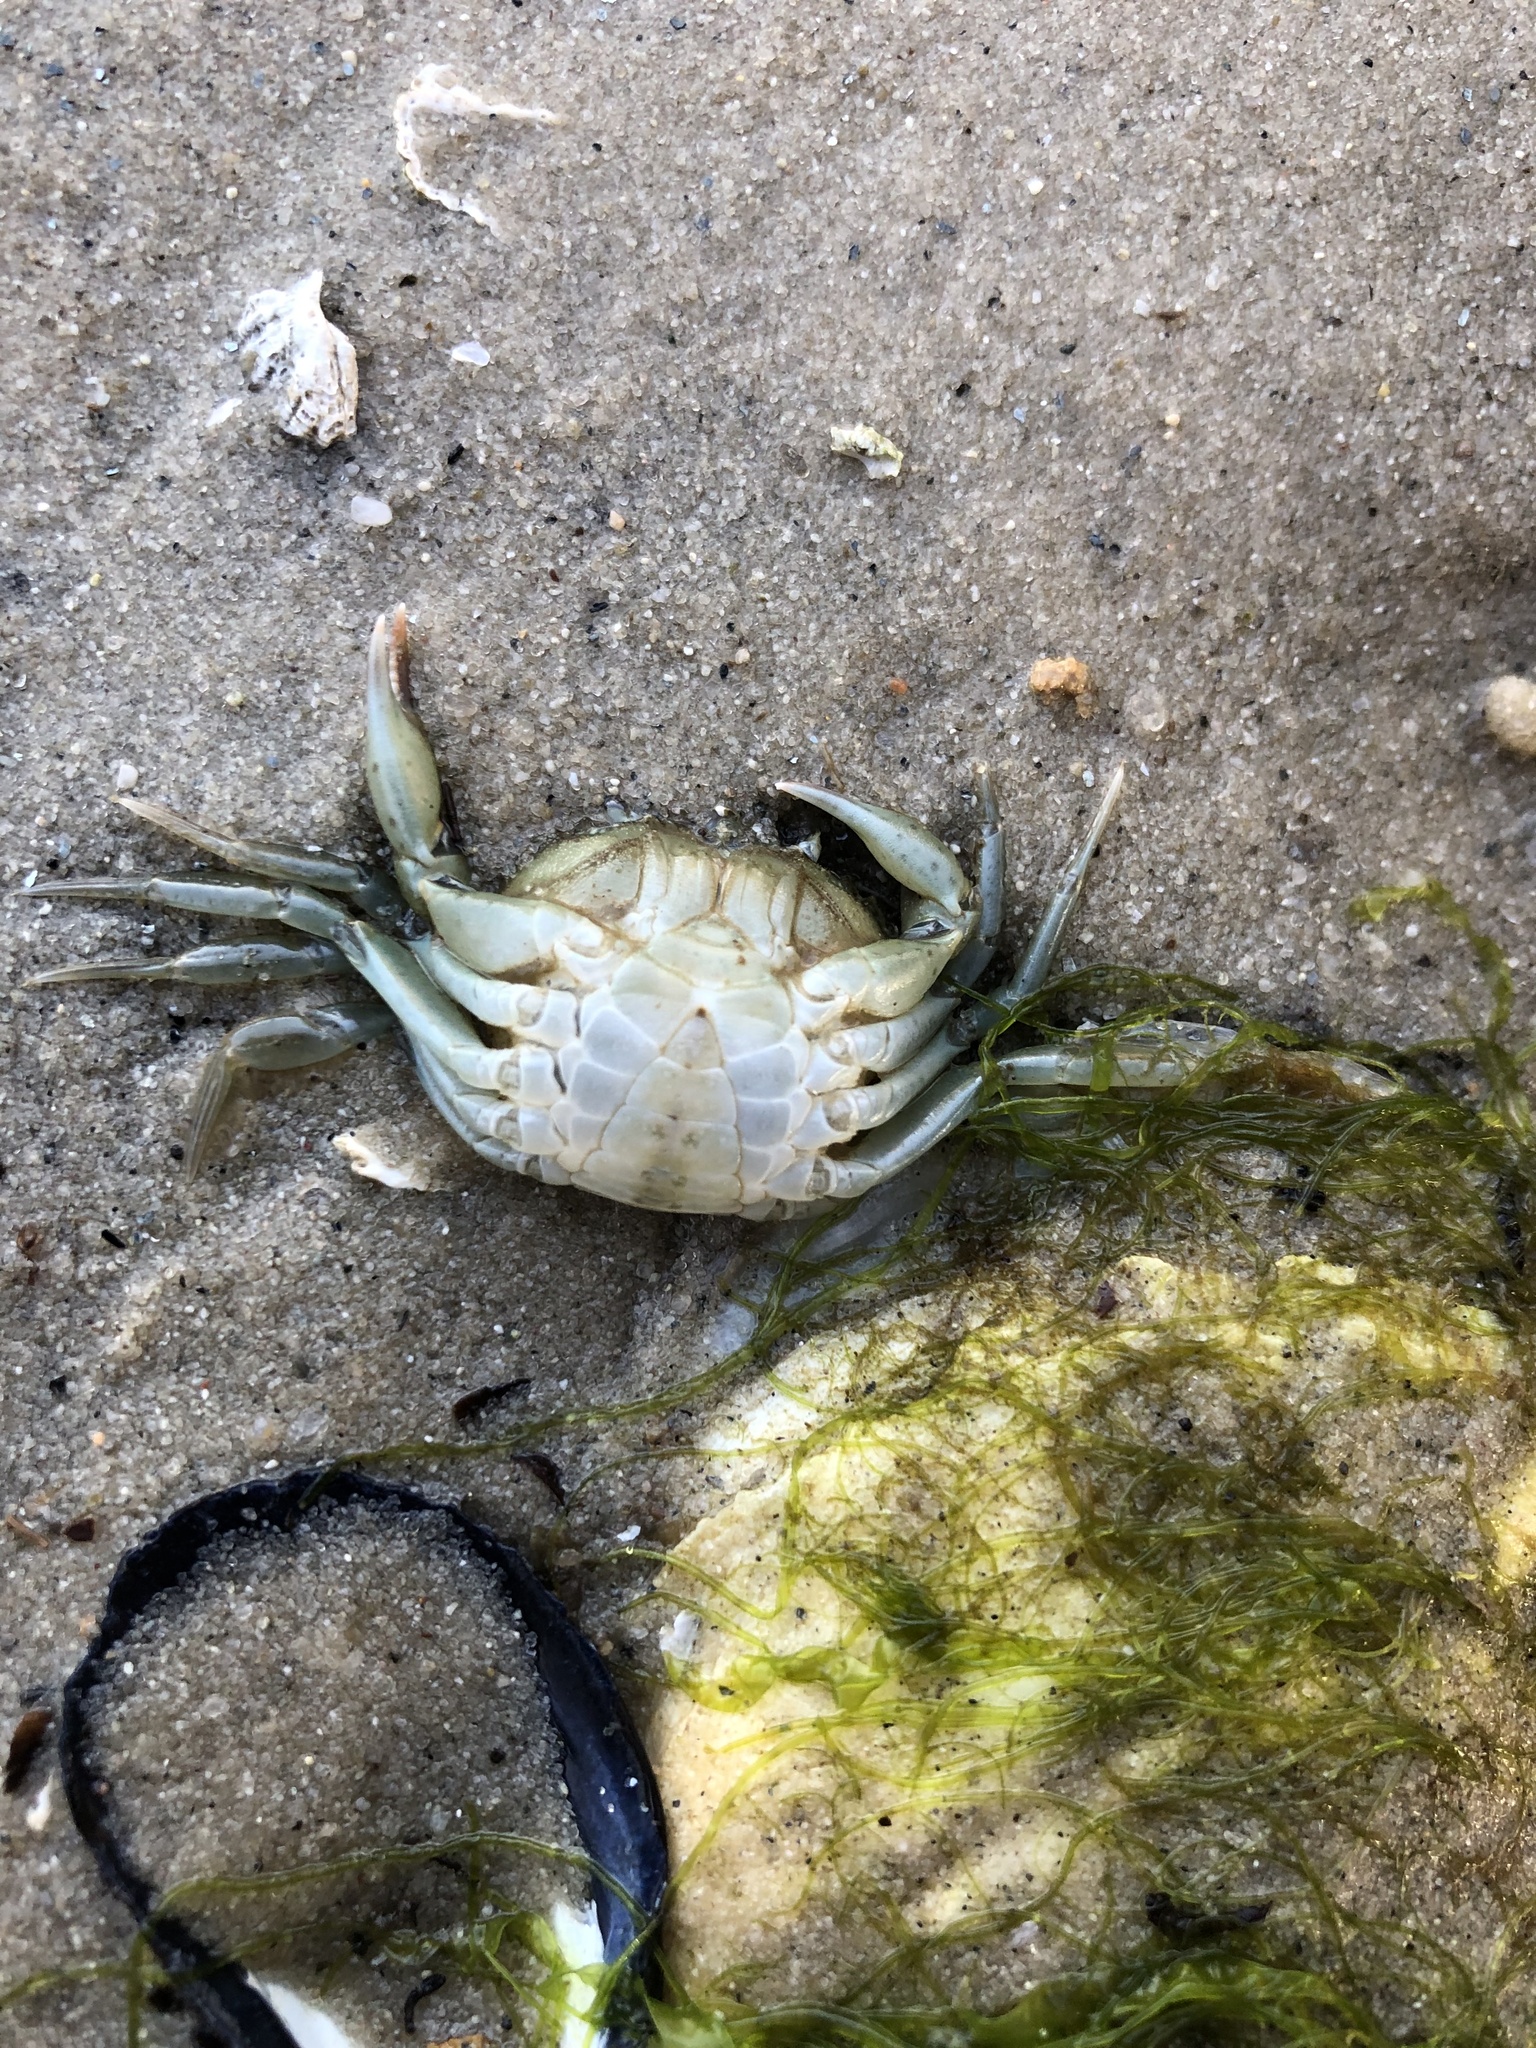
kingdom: Animalia
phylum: Arthropoda
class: Malacostraca
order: Decapoda
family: Carcinidae
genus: Carcinus
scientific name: Carcinus maenas
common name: European green crab
